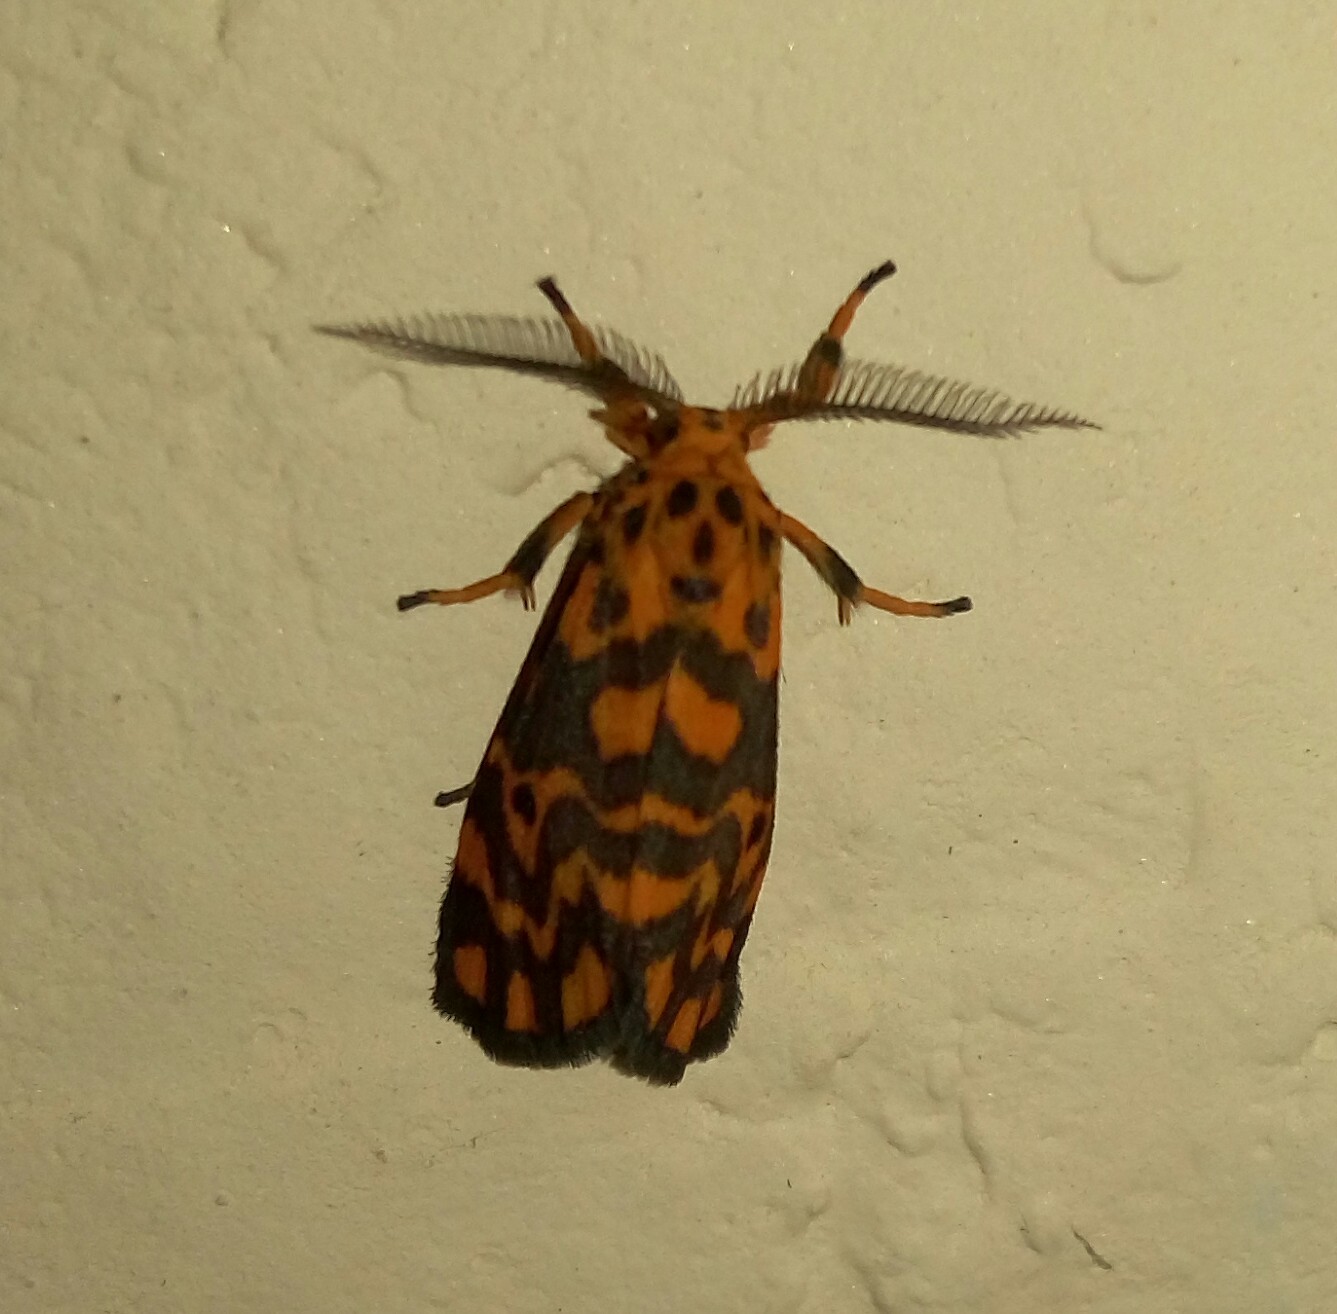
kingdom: Animalia
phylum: Arthropoda
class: Insecta
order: Lepidoptera
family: Erebidae
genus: Nepita
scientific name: Nepita conferta
